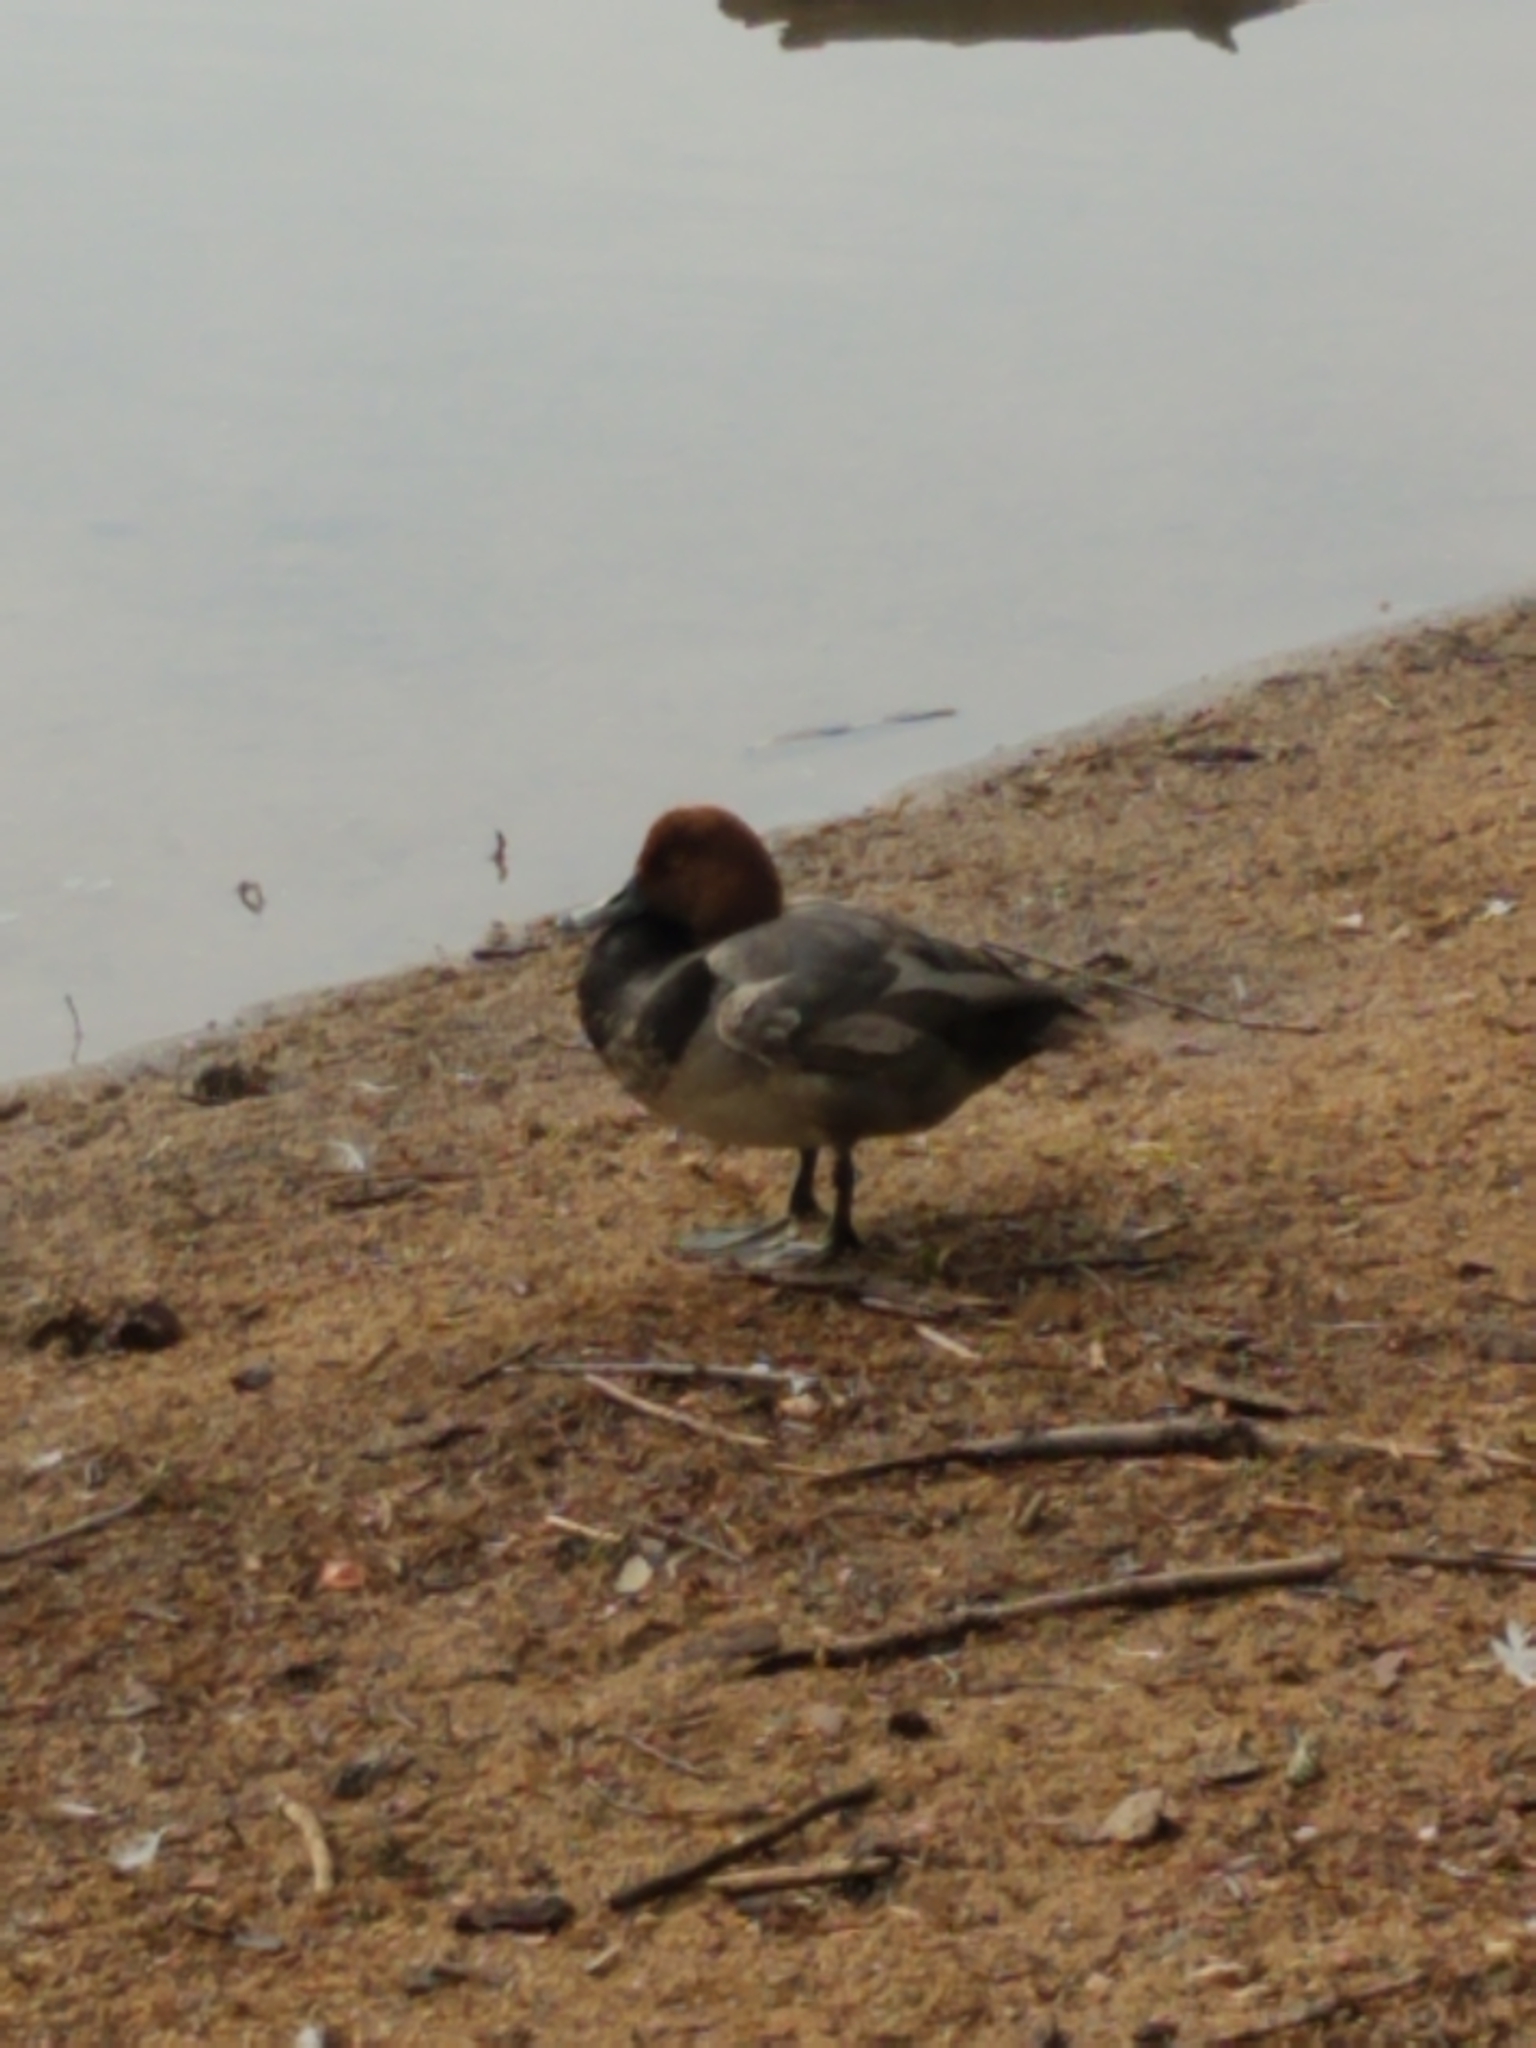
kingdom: Animalia
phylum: Chordata
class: Aves
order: Anseriformes
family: Anatidae
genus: Aythya
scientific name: Aythya americana
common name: Redhead
